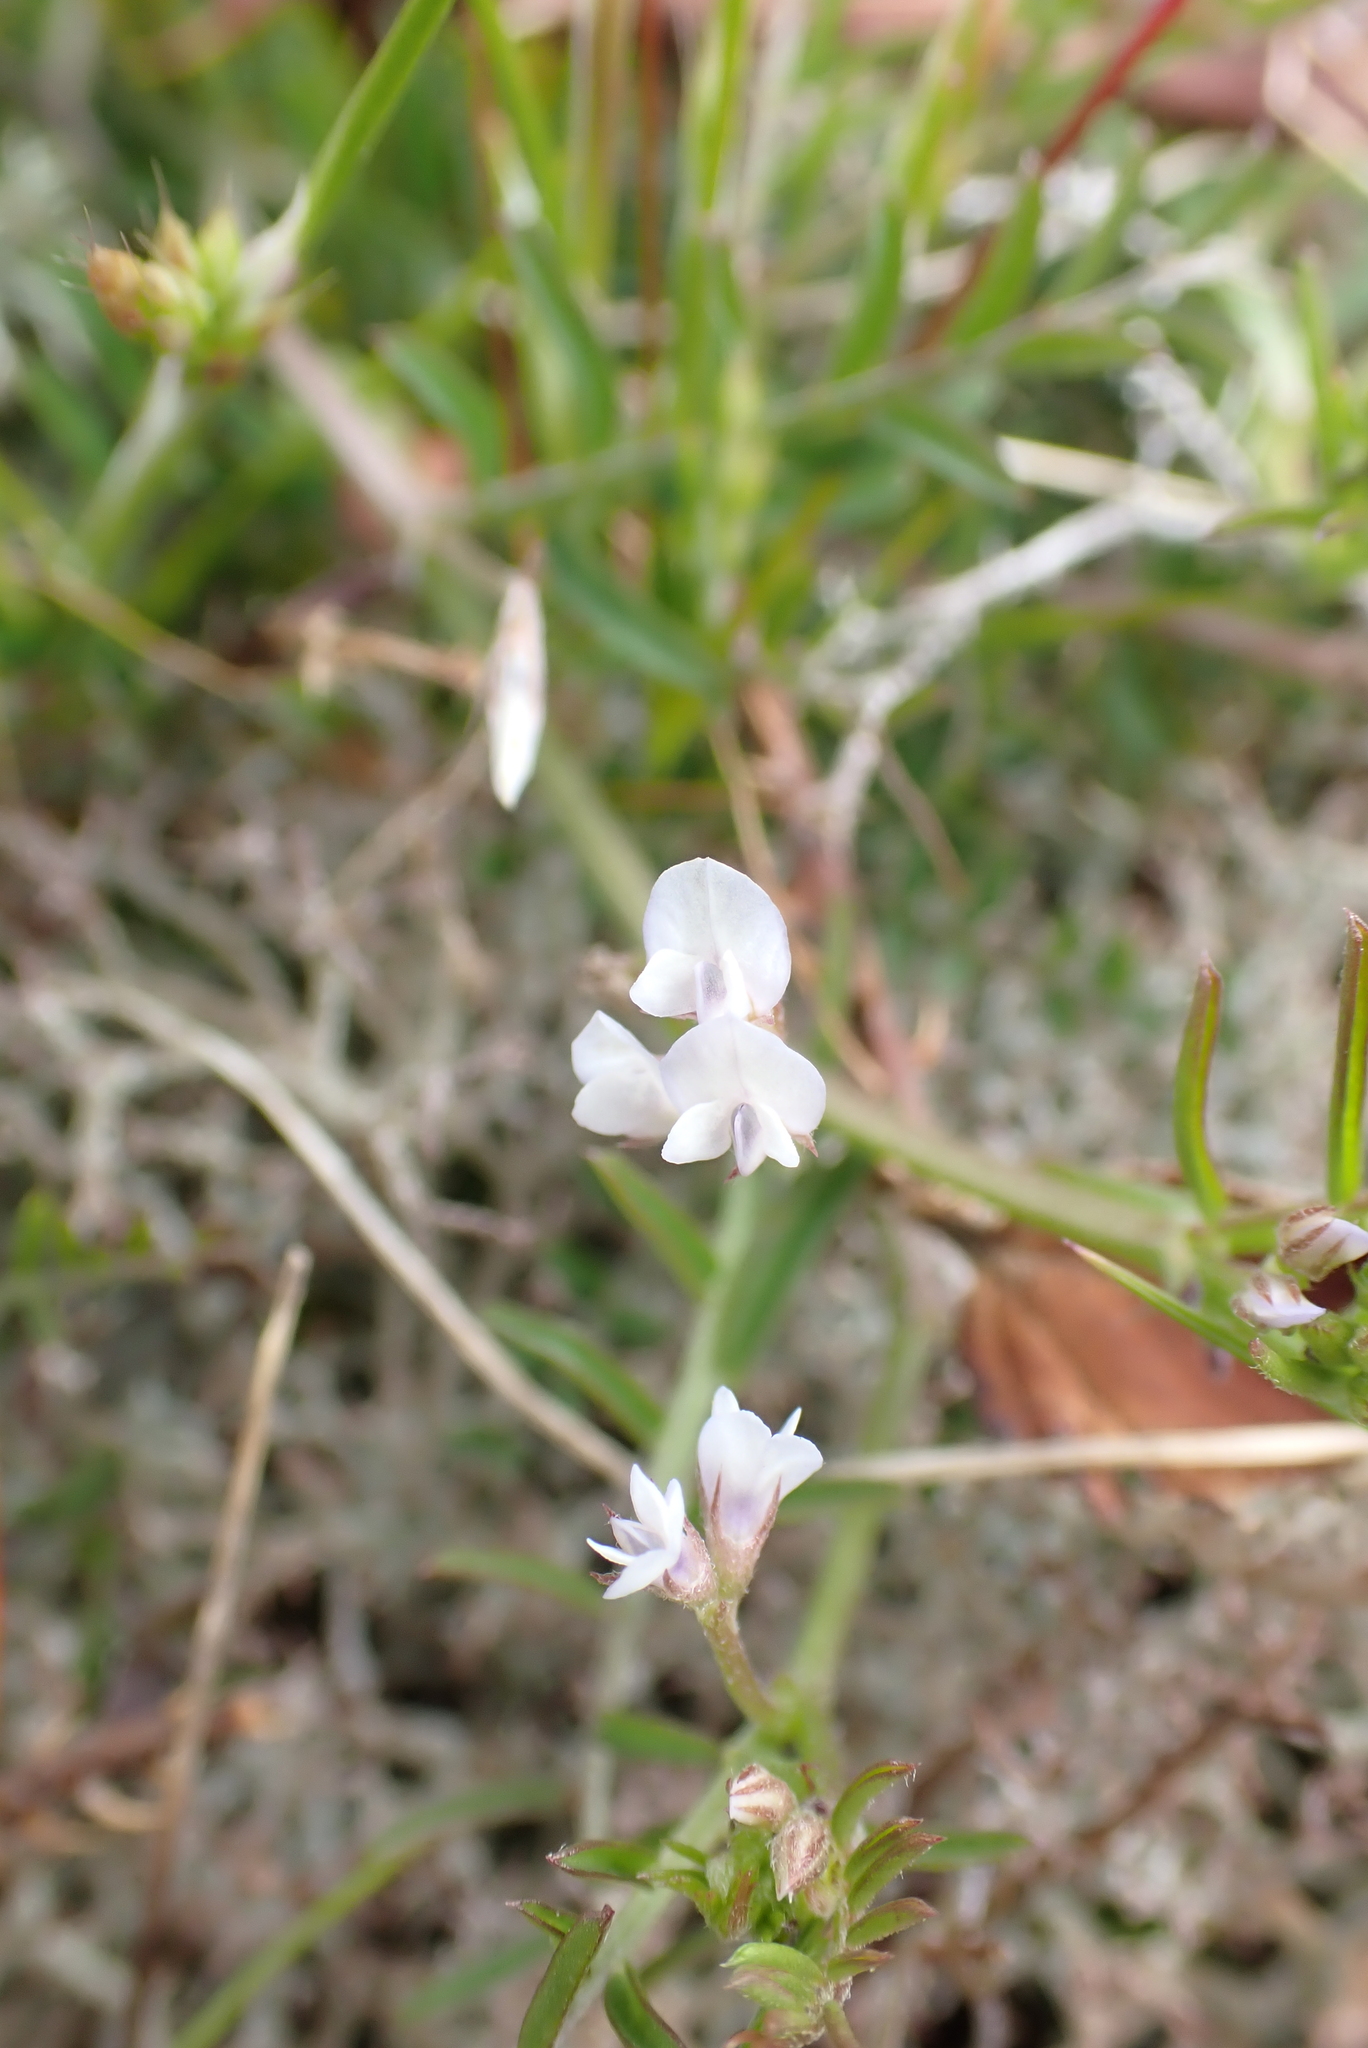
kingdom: Plantae
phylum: Tracheophyta
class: Magnoliopsida
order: Fabales
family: Fabaceae
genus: Vicia
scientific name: Vicia hirsuta
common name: Tiny vetch
